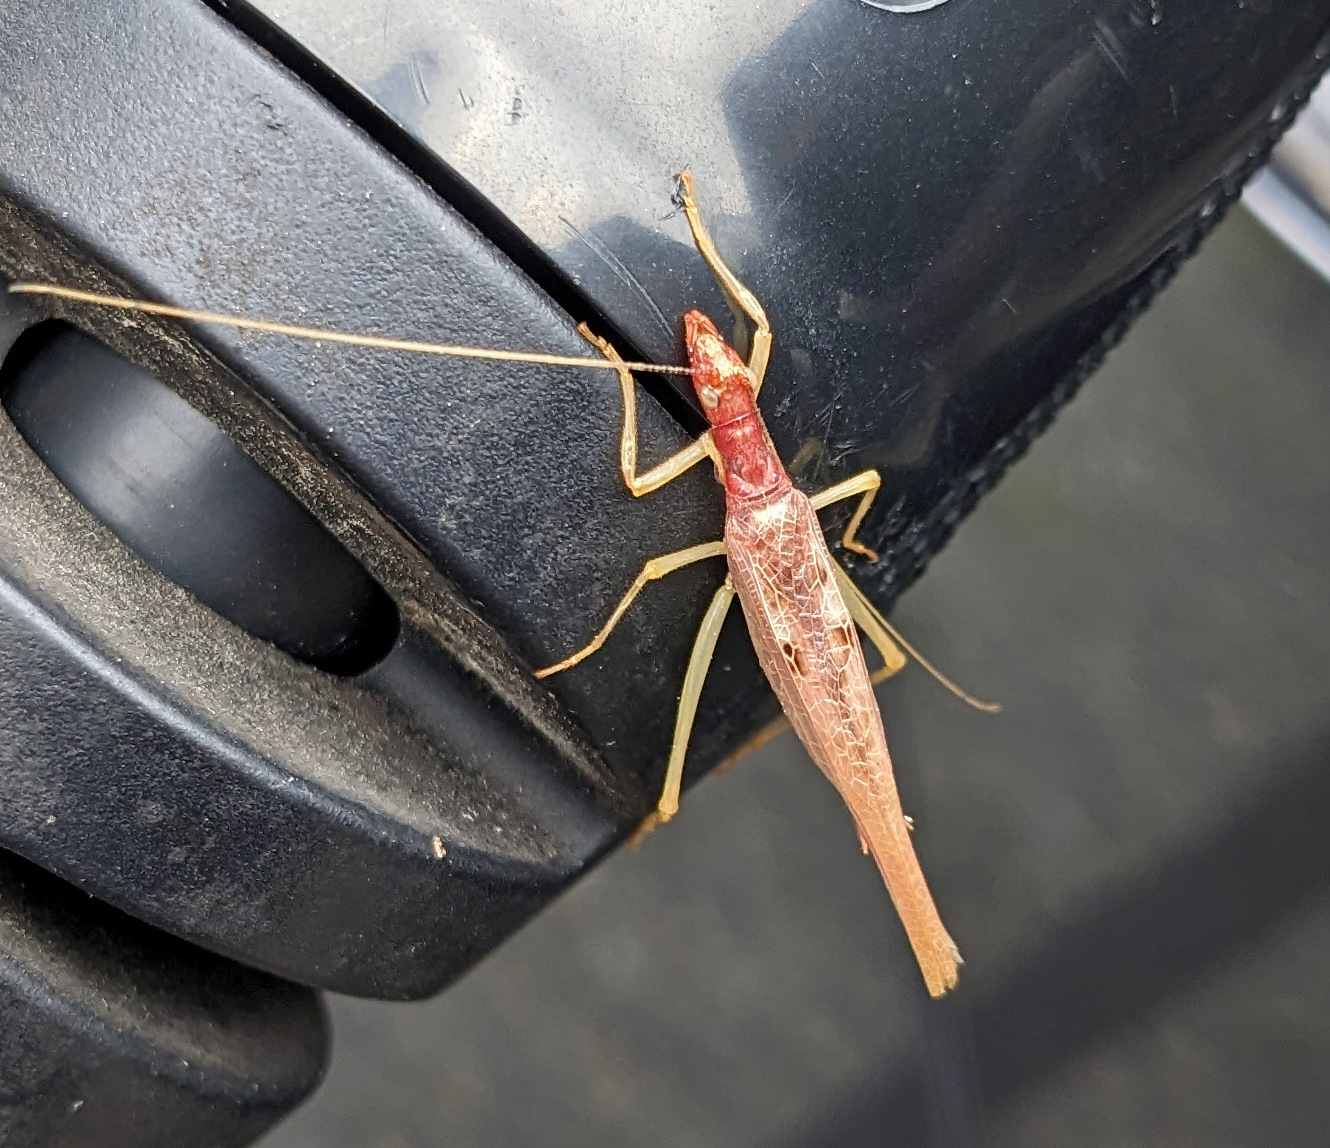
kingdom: Animalia
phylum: Arthropoda
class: Insecta
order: Orthoptera
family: Gryllidae
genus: Neoxabea
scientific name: Neoxabea bipunctata
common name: Two-spotted tree cricket
